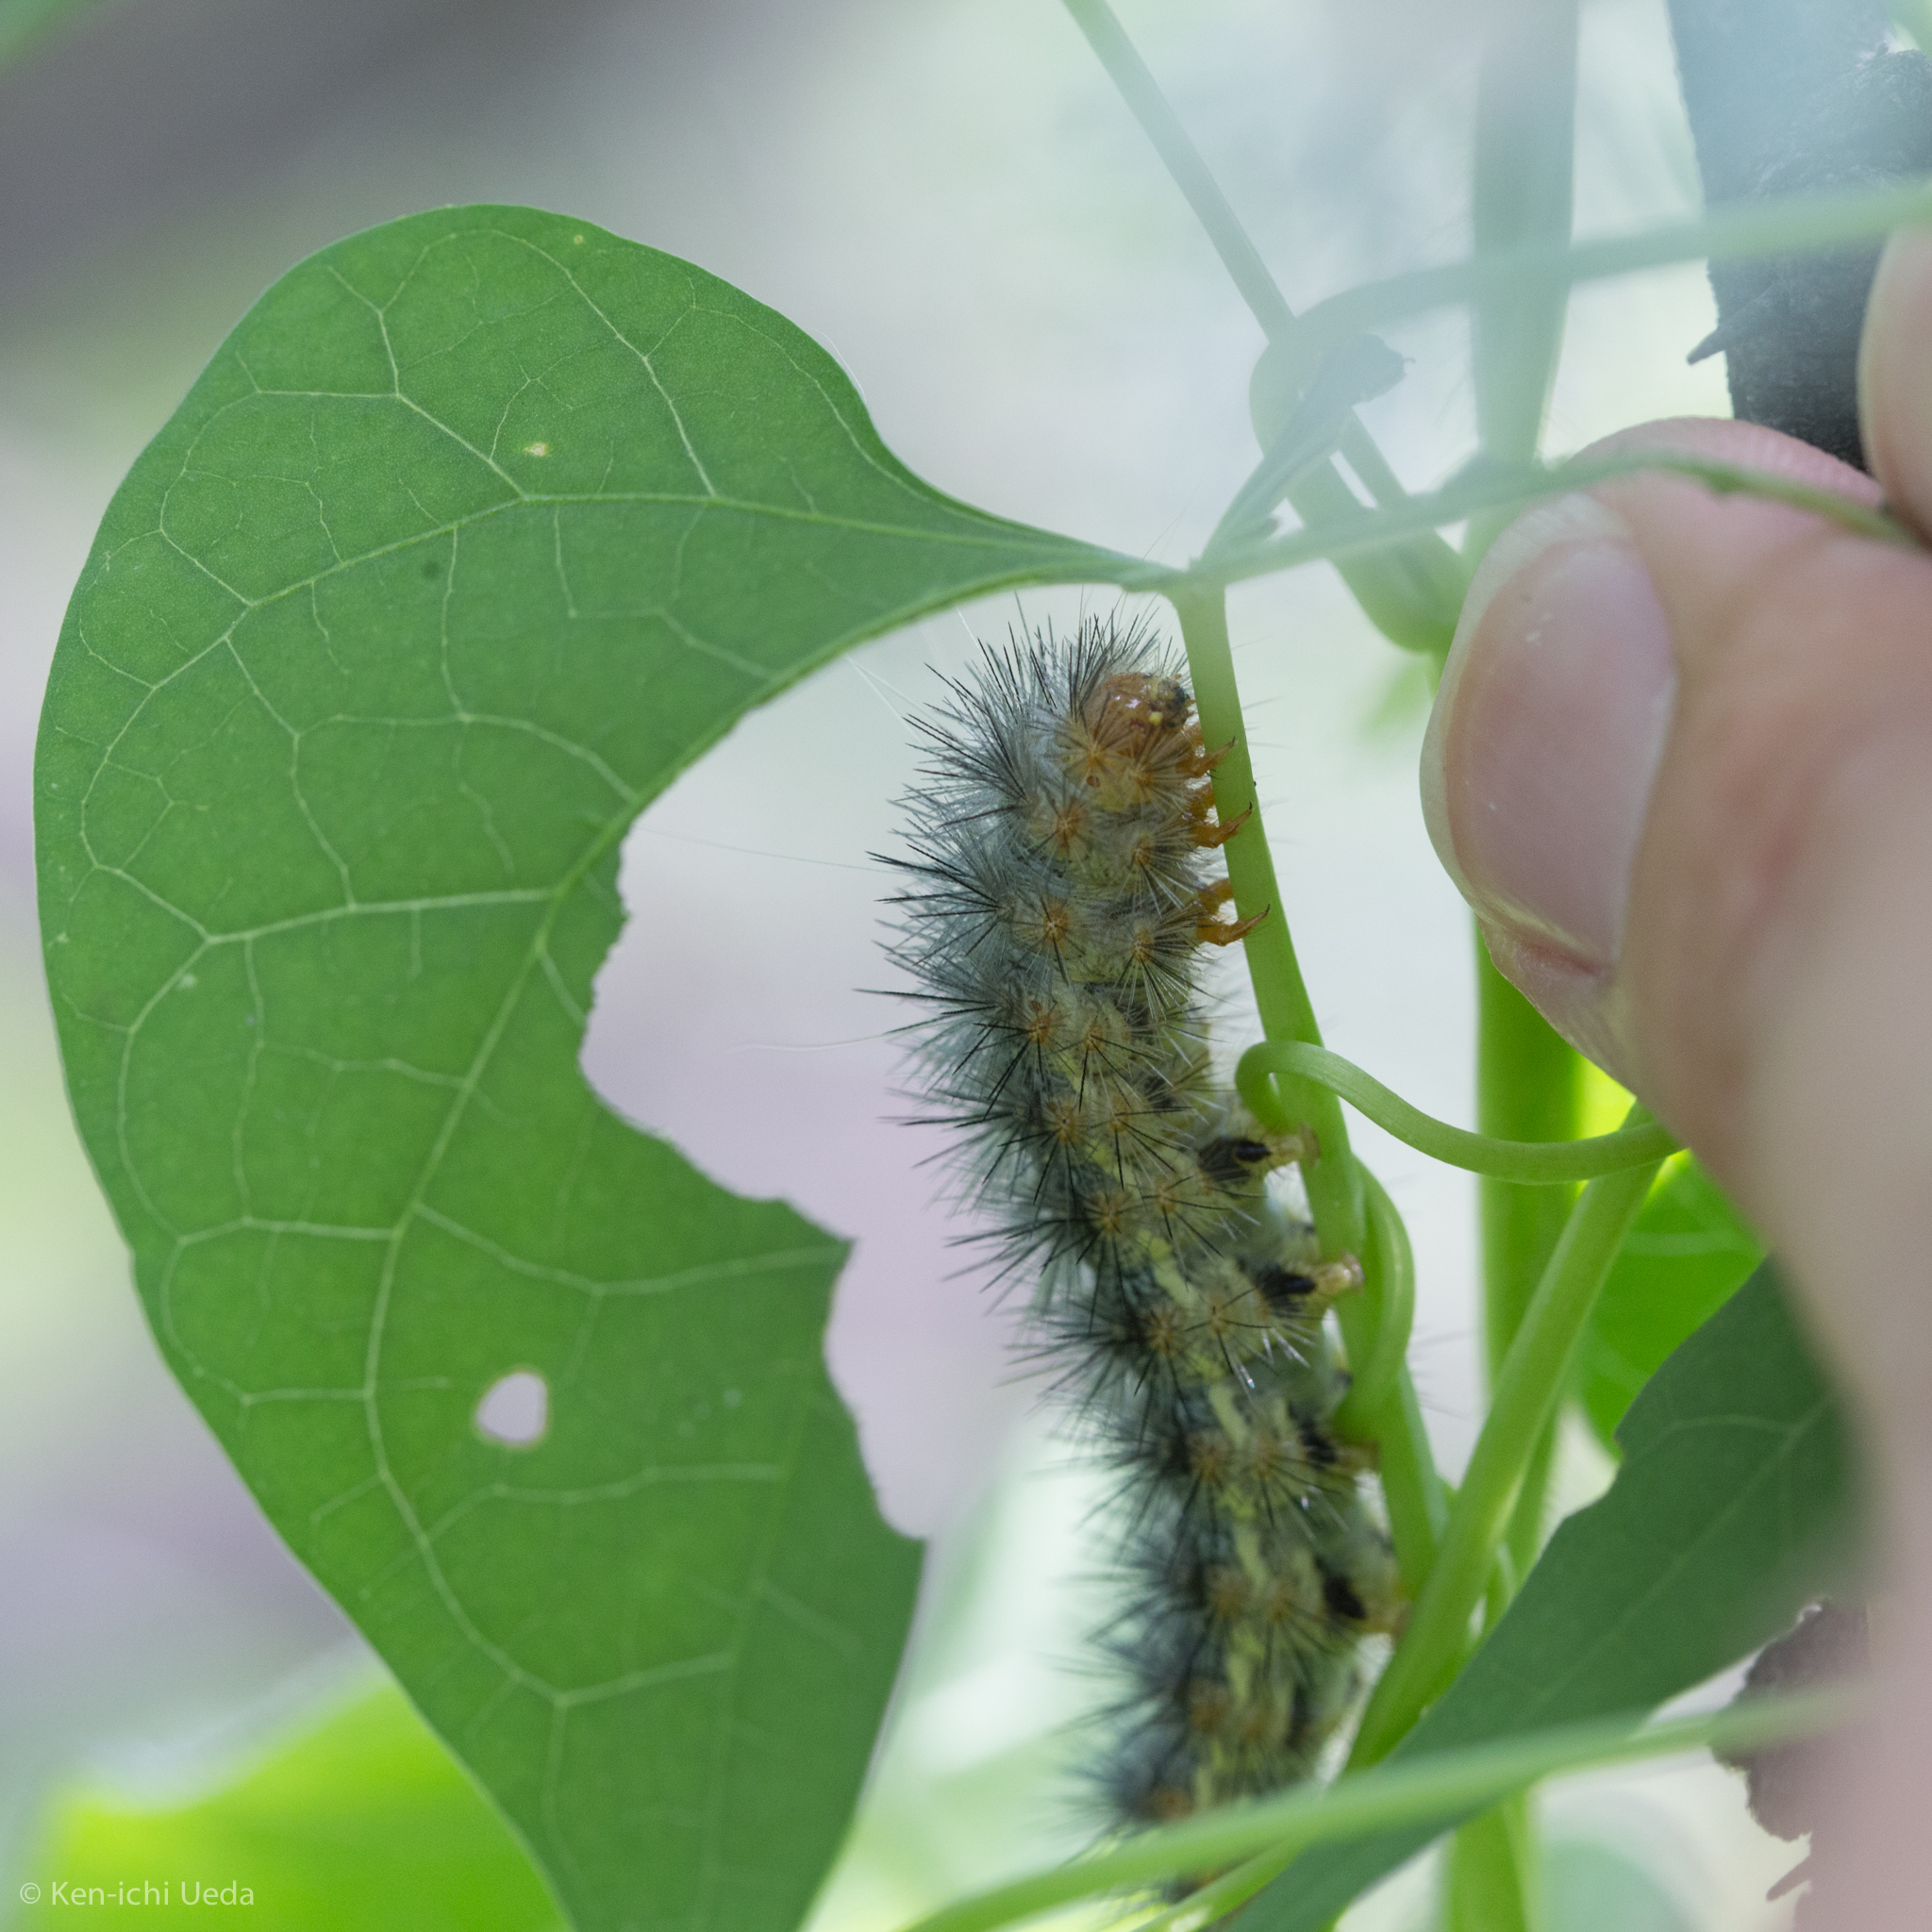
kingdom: Animalia
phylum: Arthropoda
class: Insecta
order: Lepidoptera
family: Erebidae
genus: Hypercompe
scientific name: Hypercompe suffusa
